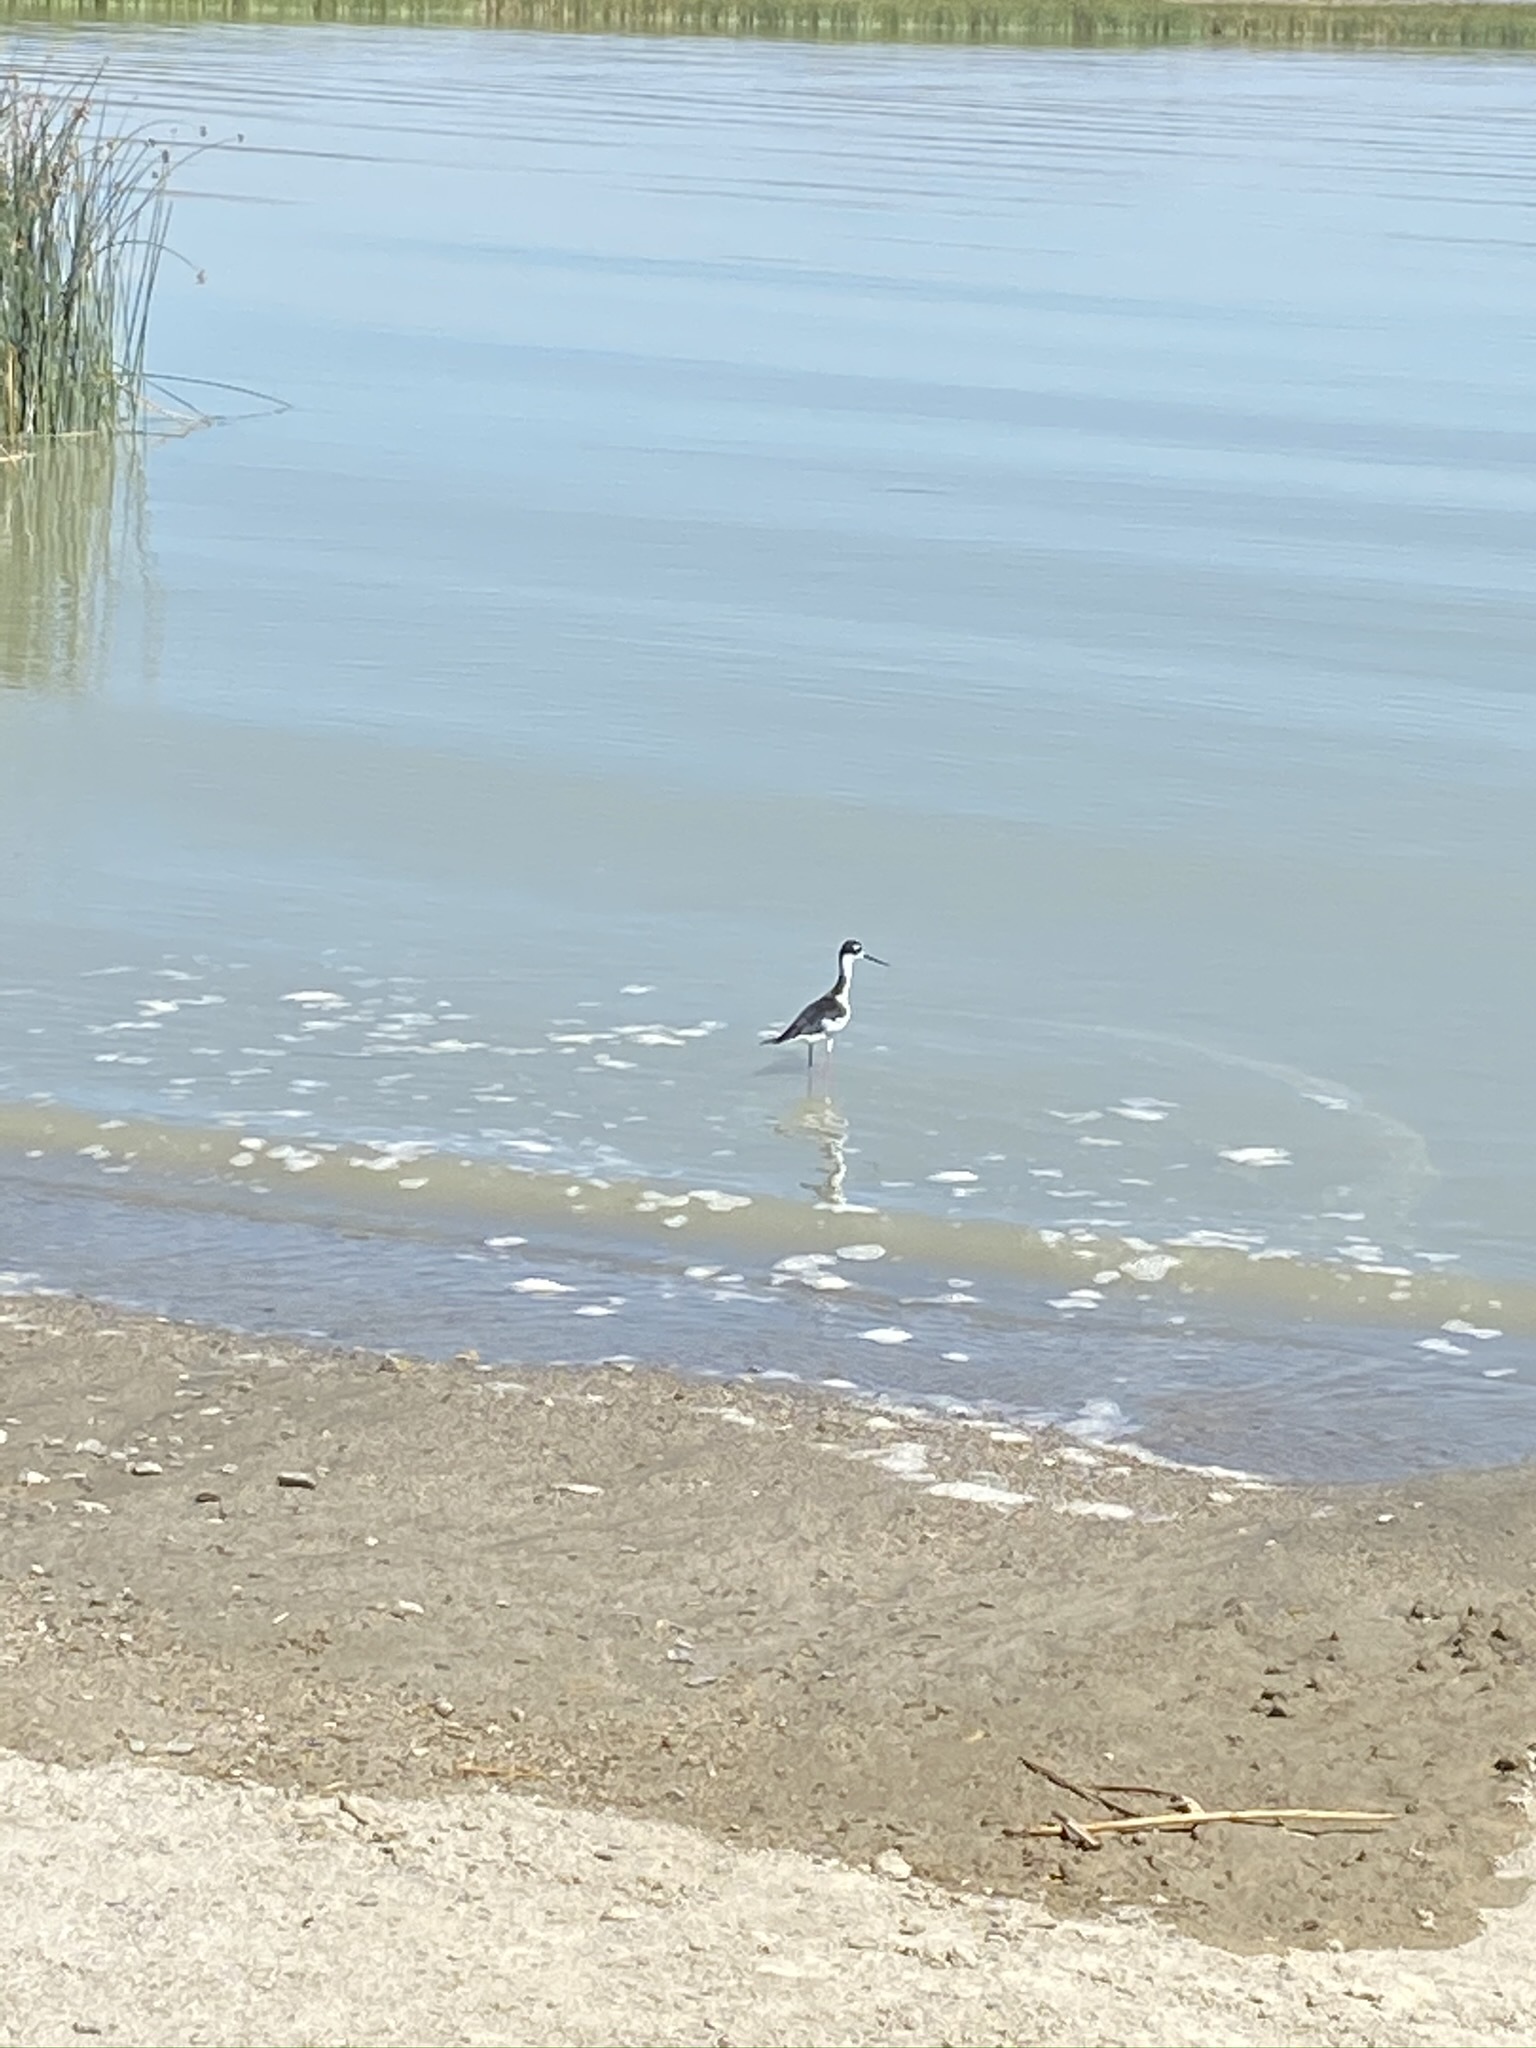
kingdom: Animalia
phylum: Chordata
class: Aves
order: Charadriiformes
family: Recurvirostridae
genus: Himantopus
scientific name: Himantopus mexicanus
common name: Black-necked stilt
